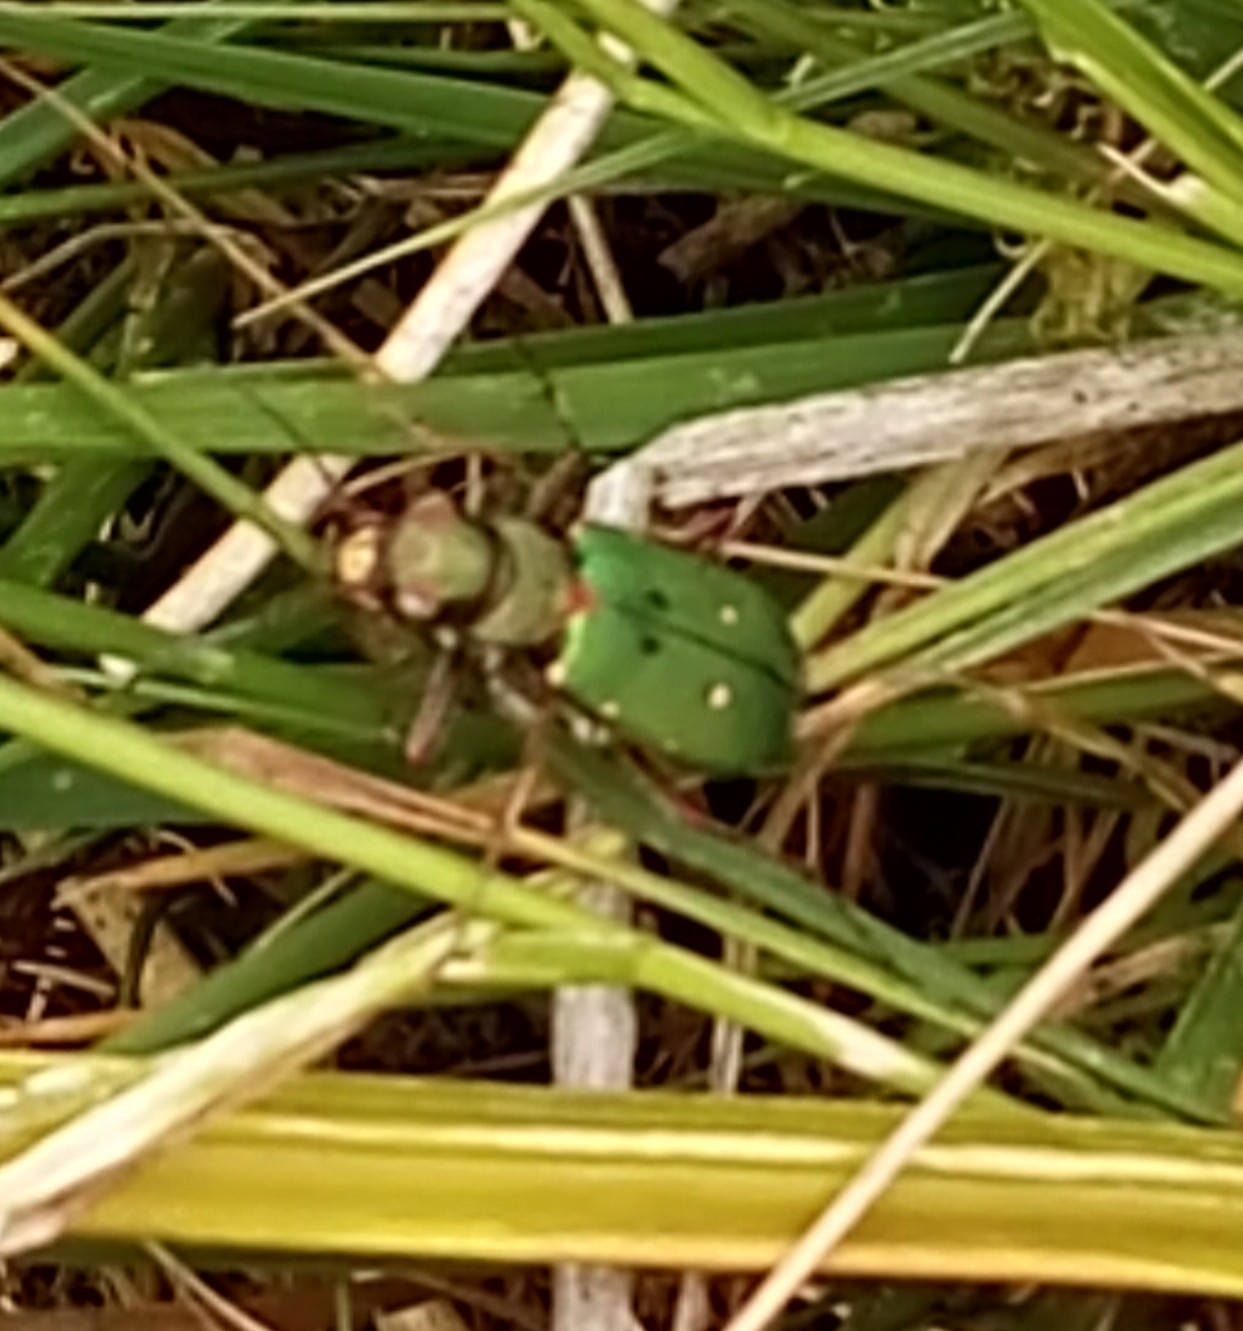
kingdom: Animalia
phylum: Arthropoda
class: Insecta
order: Coleoptera
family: Carabidae
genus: Cicindela
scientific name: Cicindela campestris
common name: Common tiger beetle
